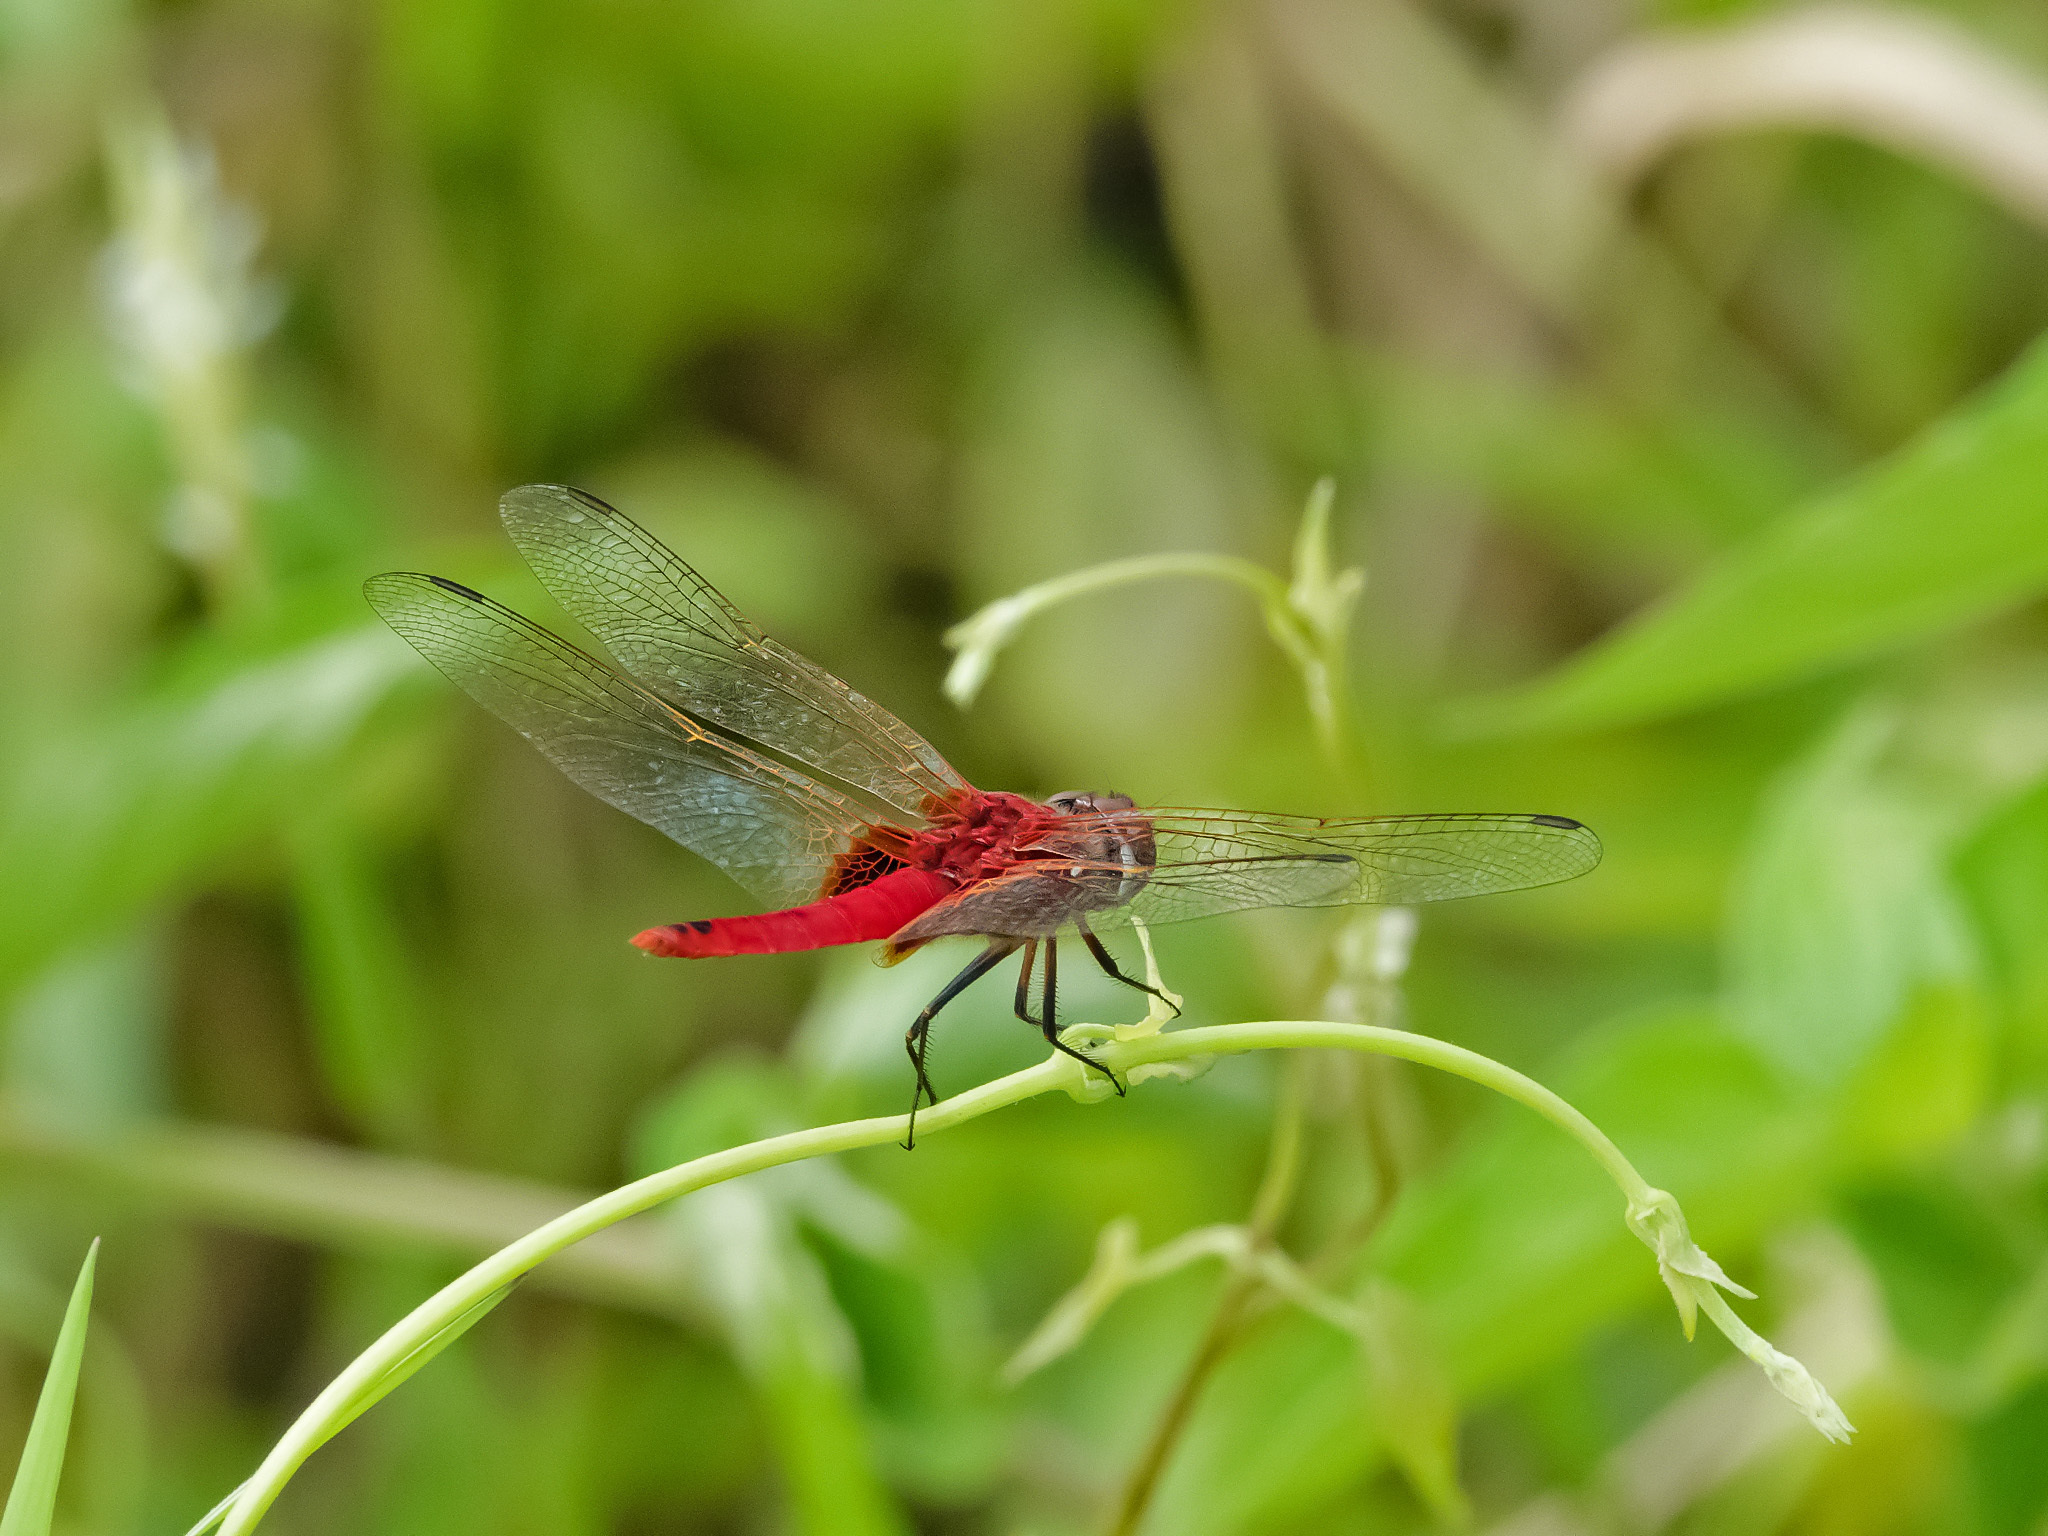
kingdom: Animalia
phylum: Arthropoda
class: Insecta
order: Odonata
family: Libellulidae
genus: Urothemis
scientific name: Urothemis signata
